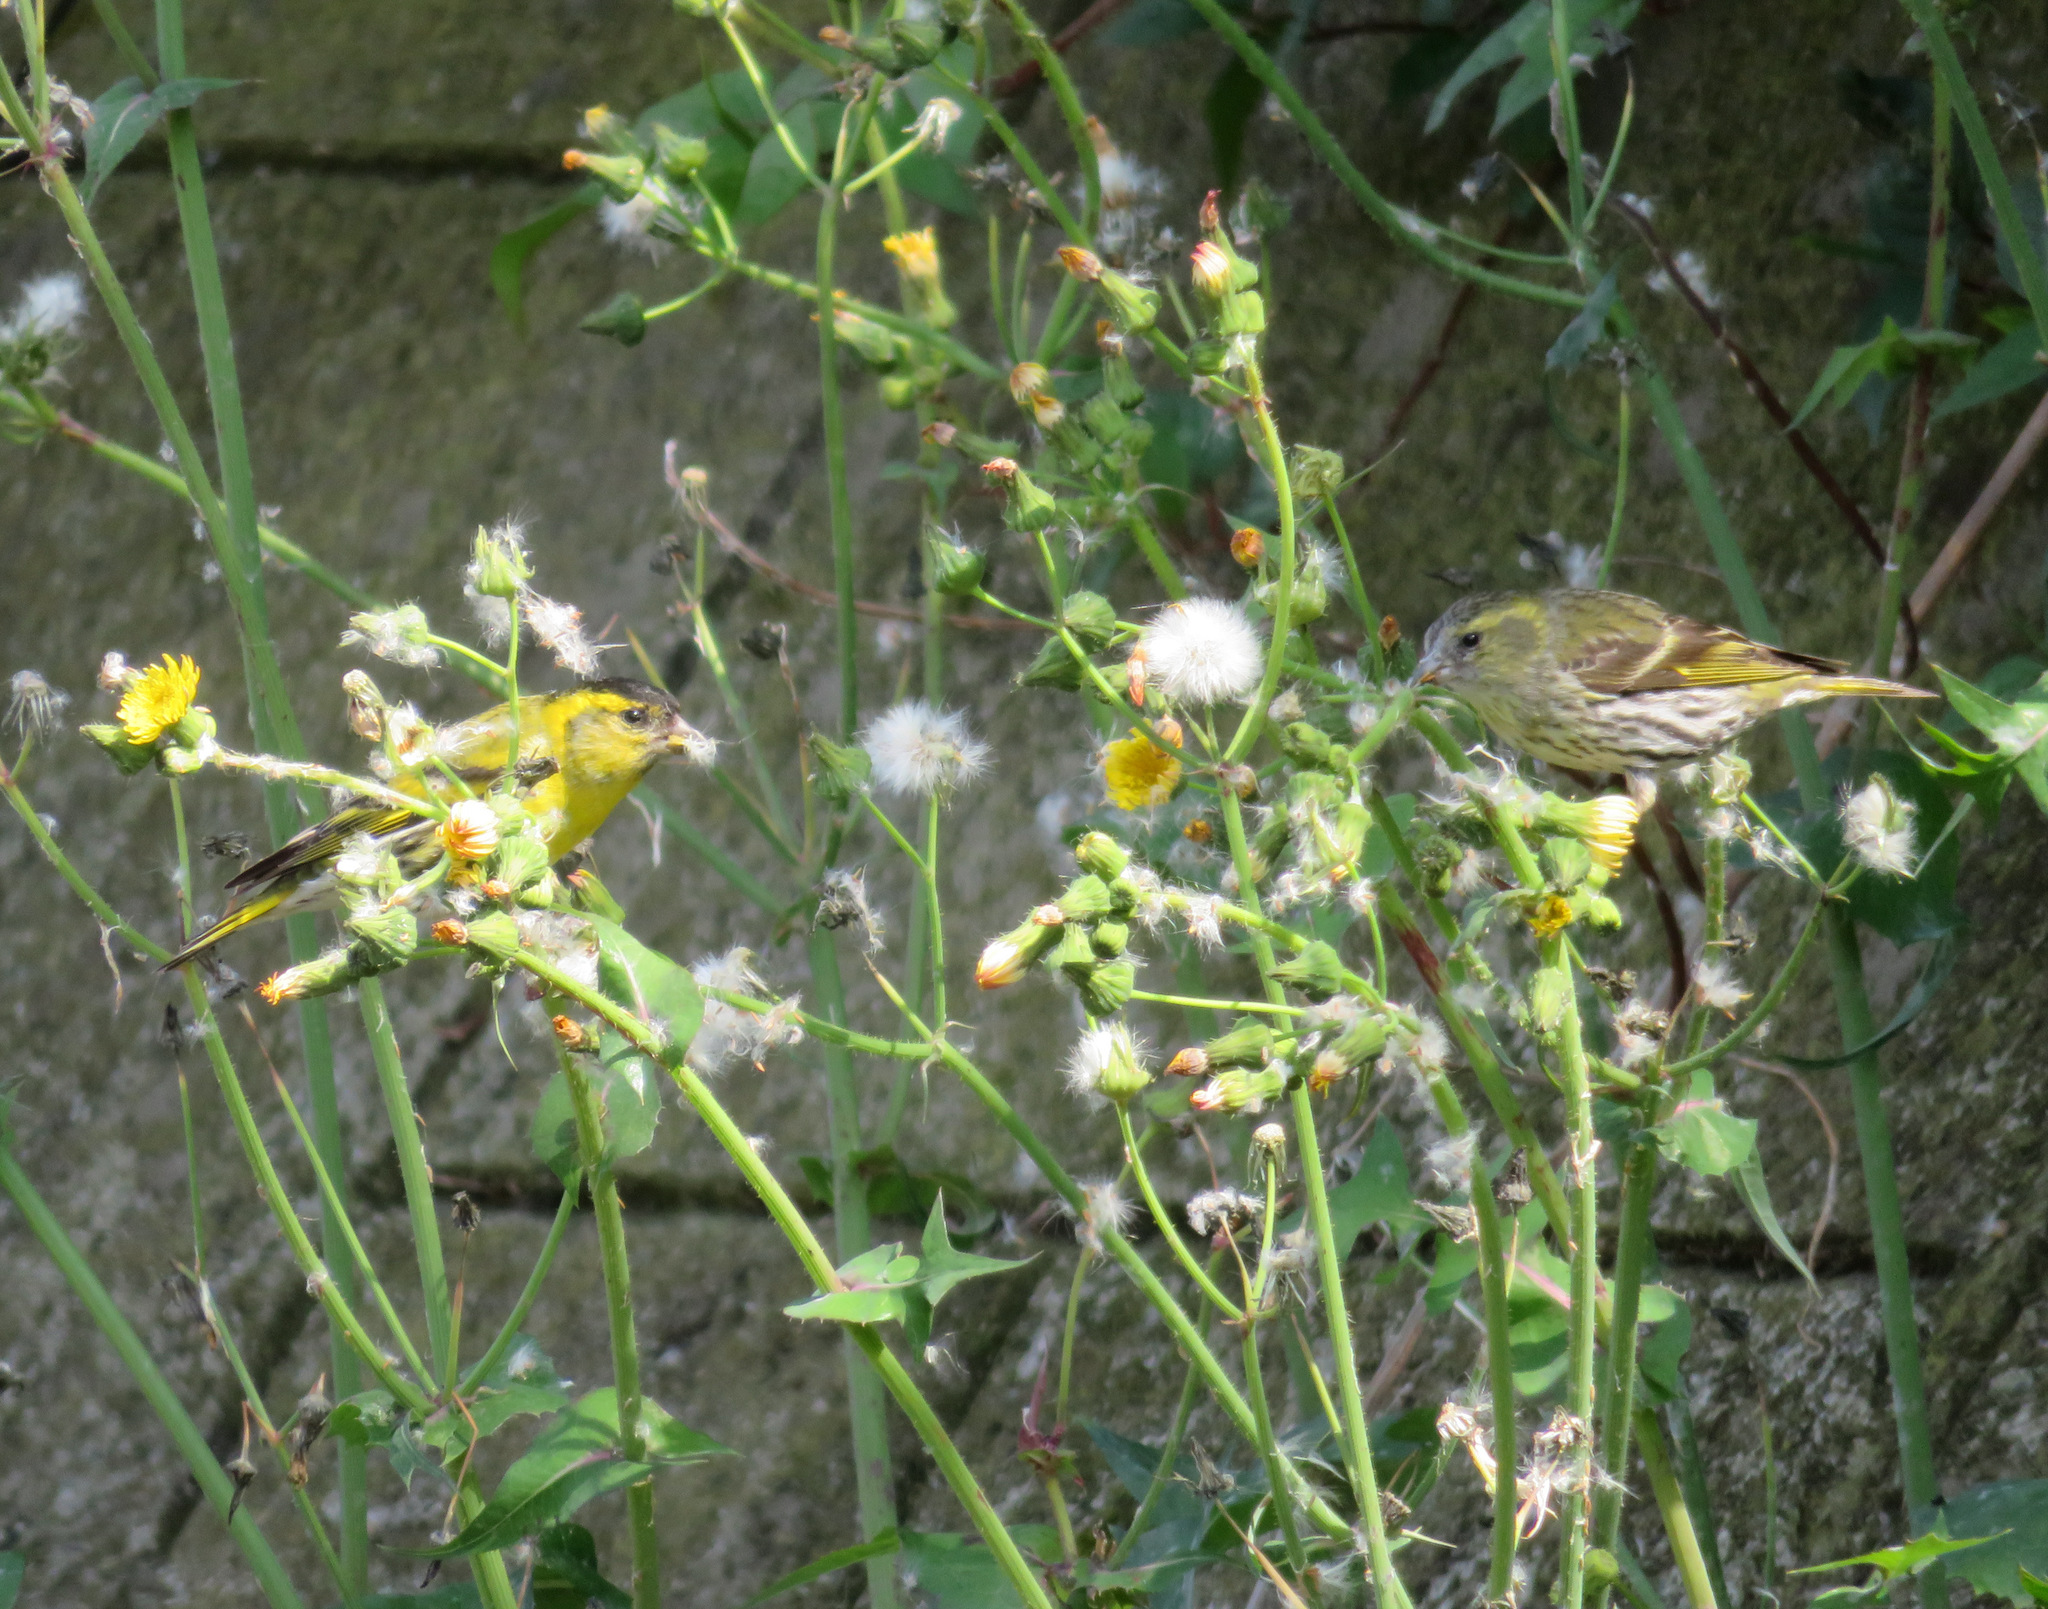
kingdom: Animalia
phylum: Chordata
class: Aves
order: Passeriformes
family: Fringillidae
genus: Spinus
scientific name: Spinus spinus
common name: Eurasian siskin
